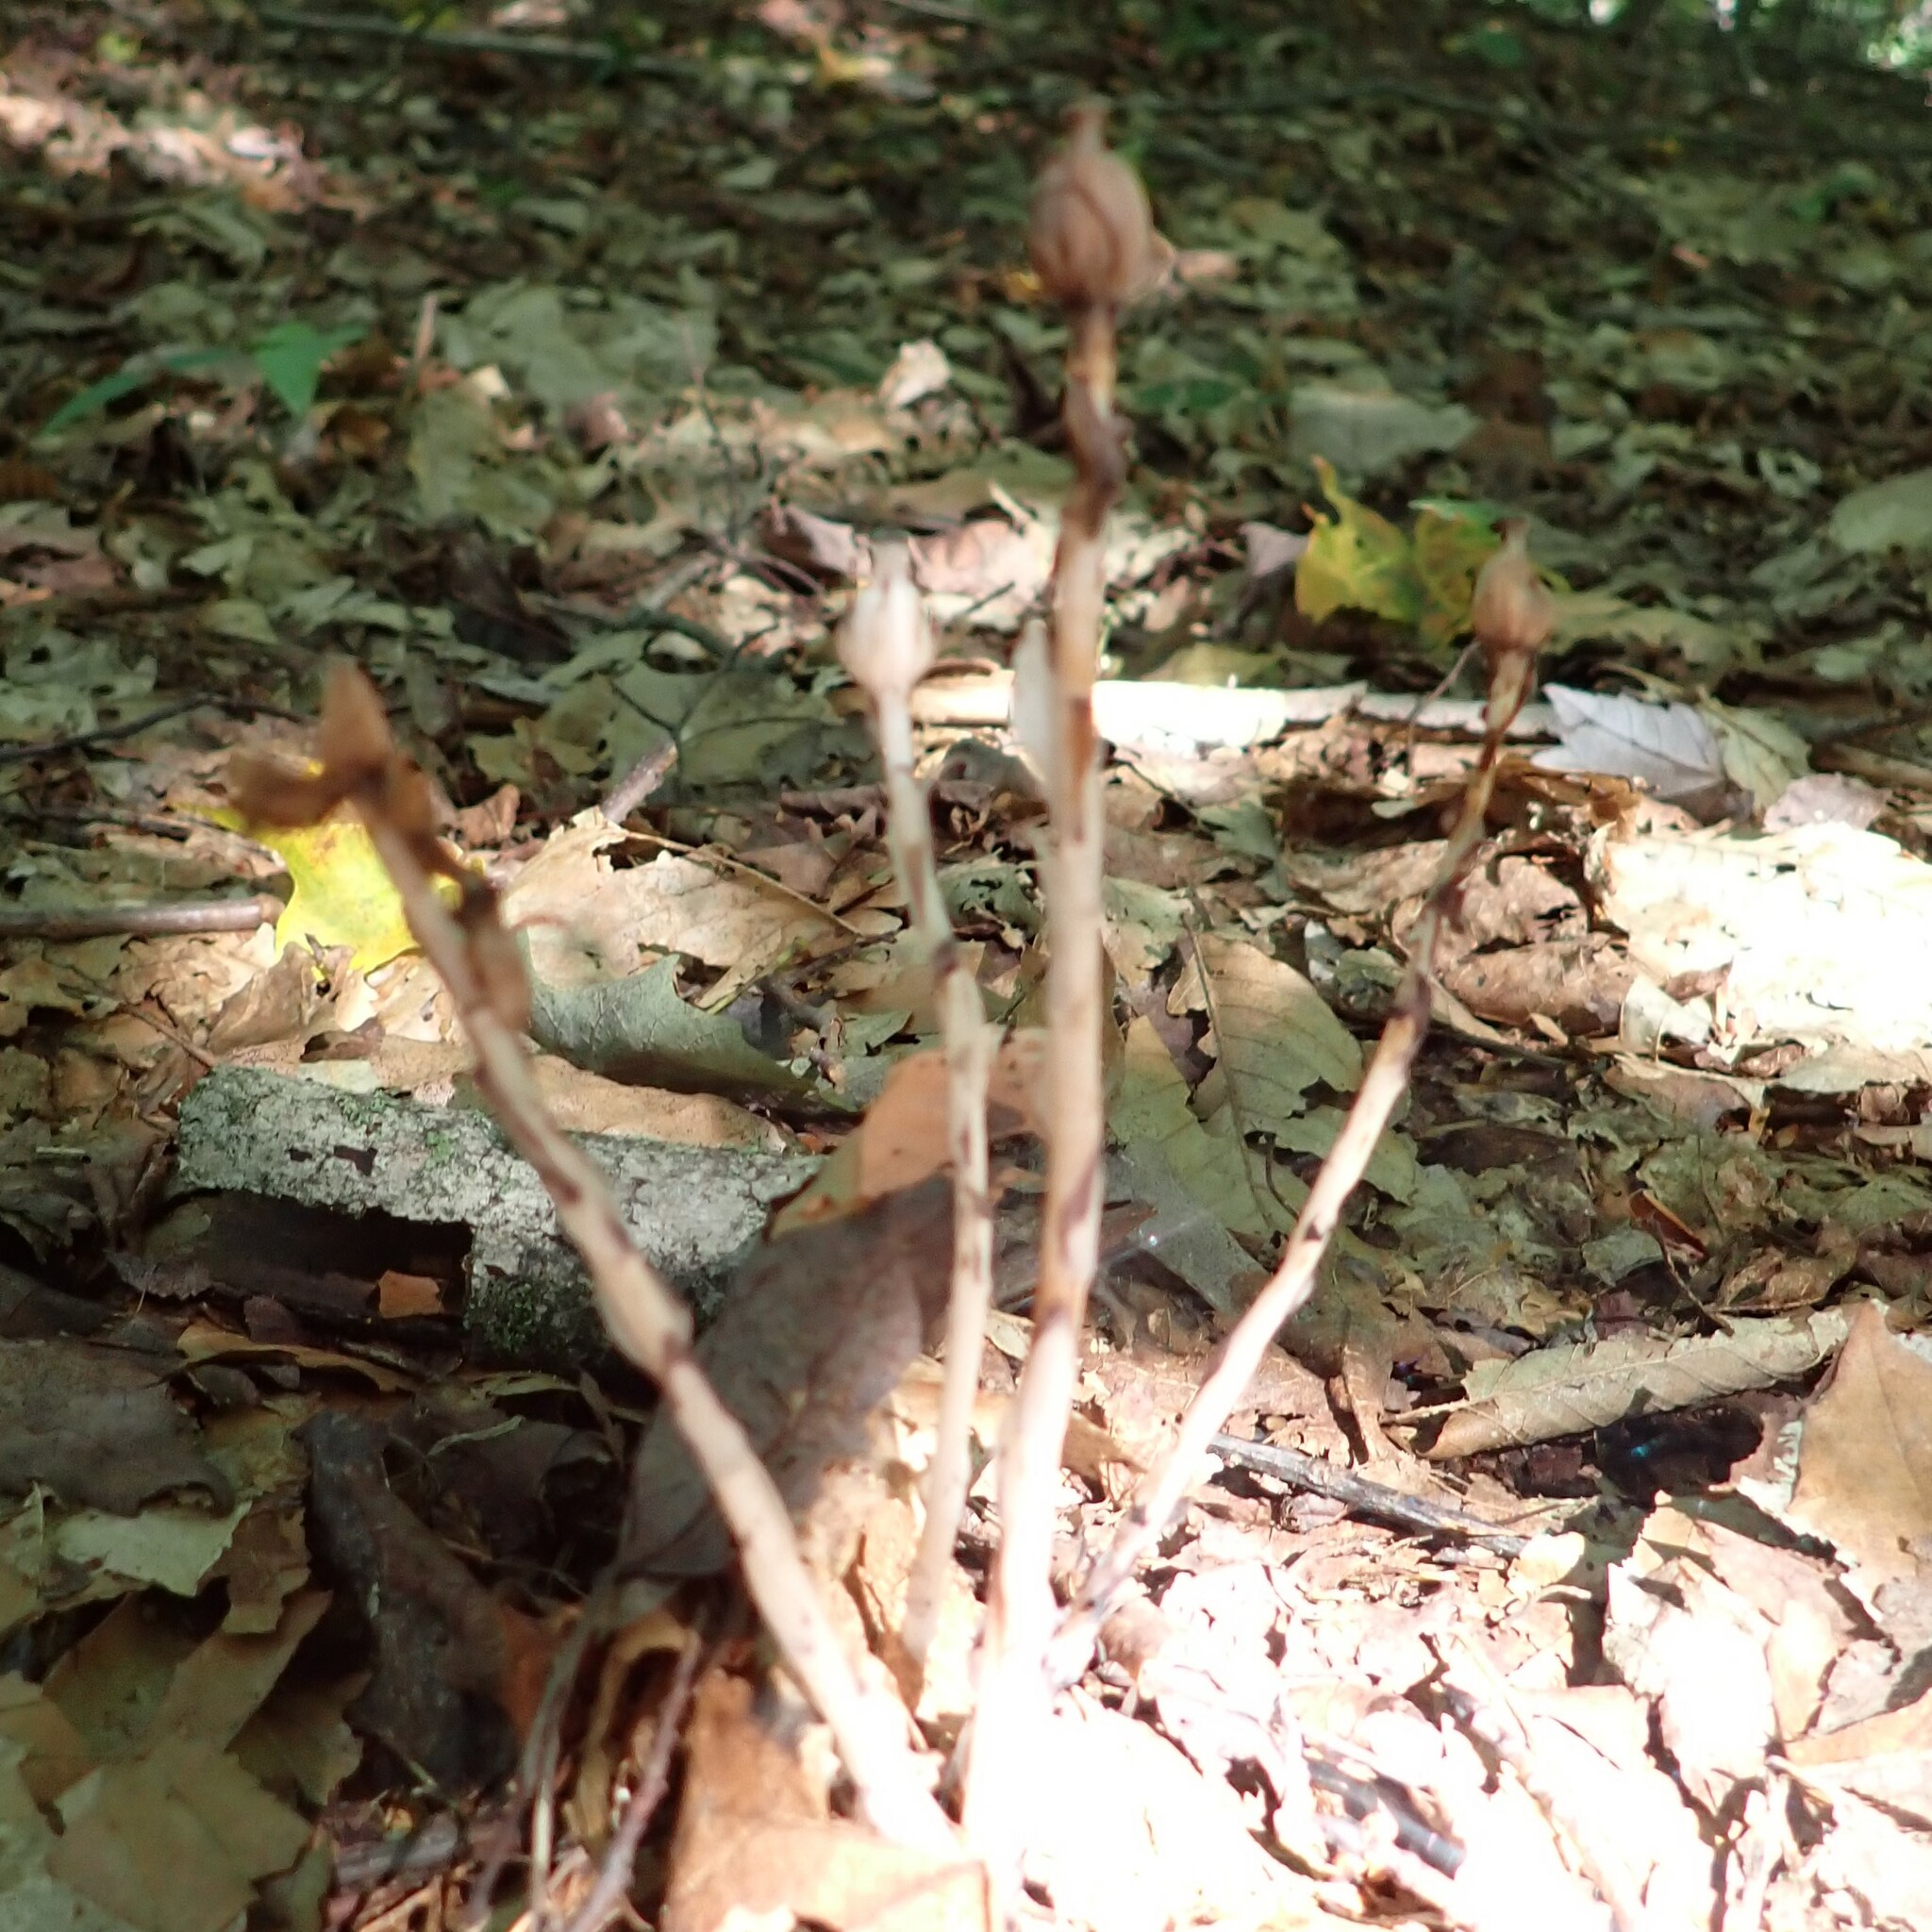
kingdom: Plantae
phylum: Tracheophyta
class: Magnoliopsida
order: Ericales
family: Ericaceae
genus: Monotropa
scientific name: Monotropa uniflora
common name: Convulsion root
